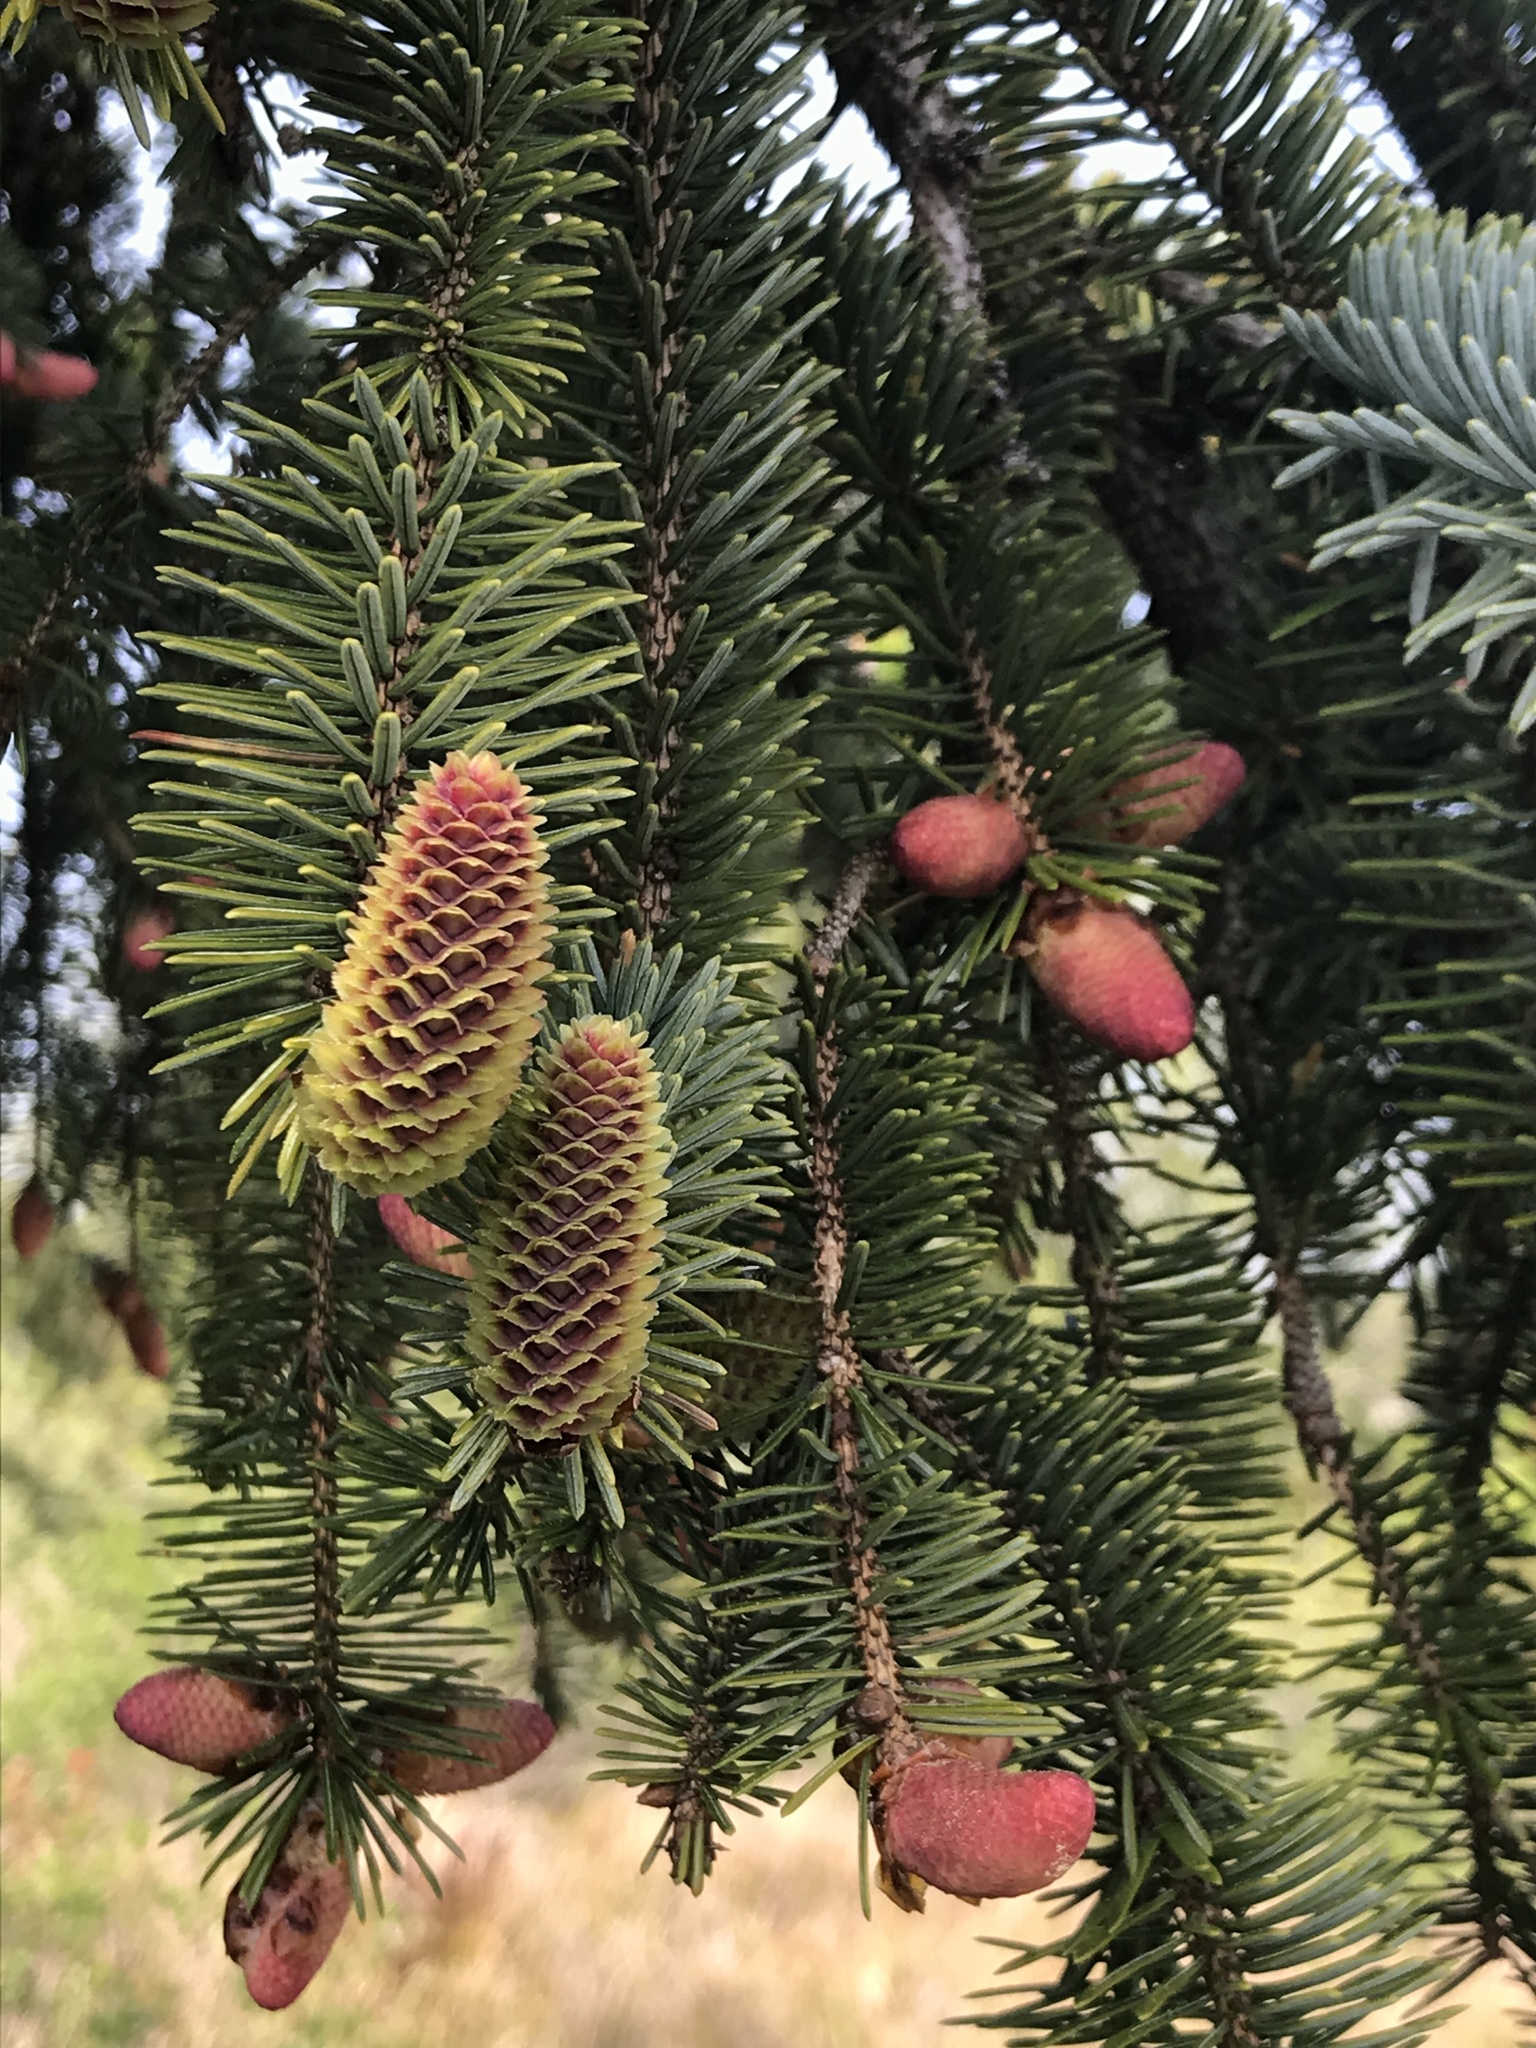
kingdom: Plantae
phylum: Tracheophyta
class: Pinopsida
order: Pinales
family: Pinaceae
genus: Picea
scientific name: Picea sitchensis
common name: Sitka spruce
